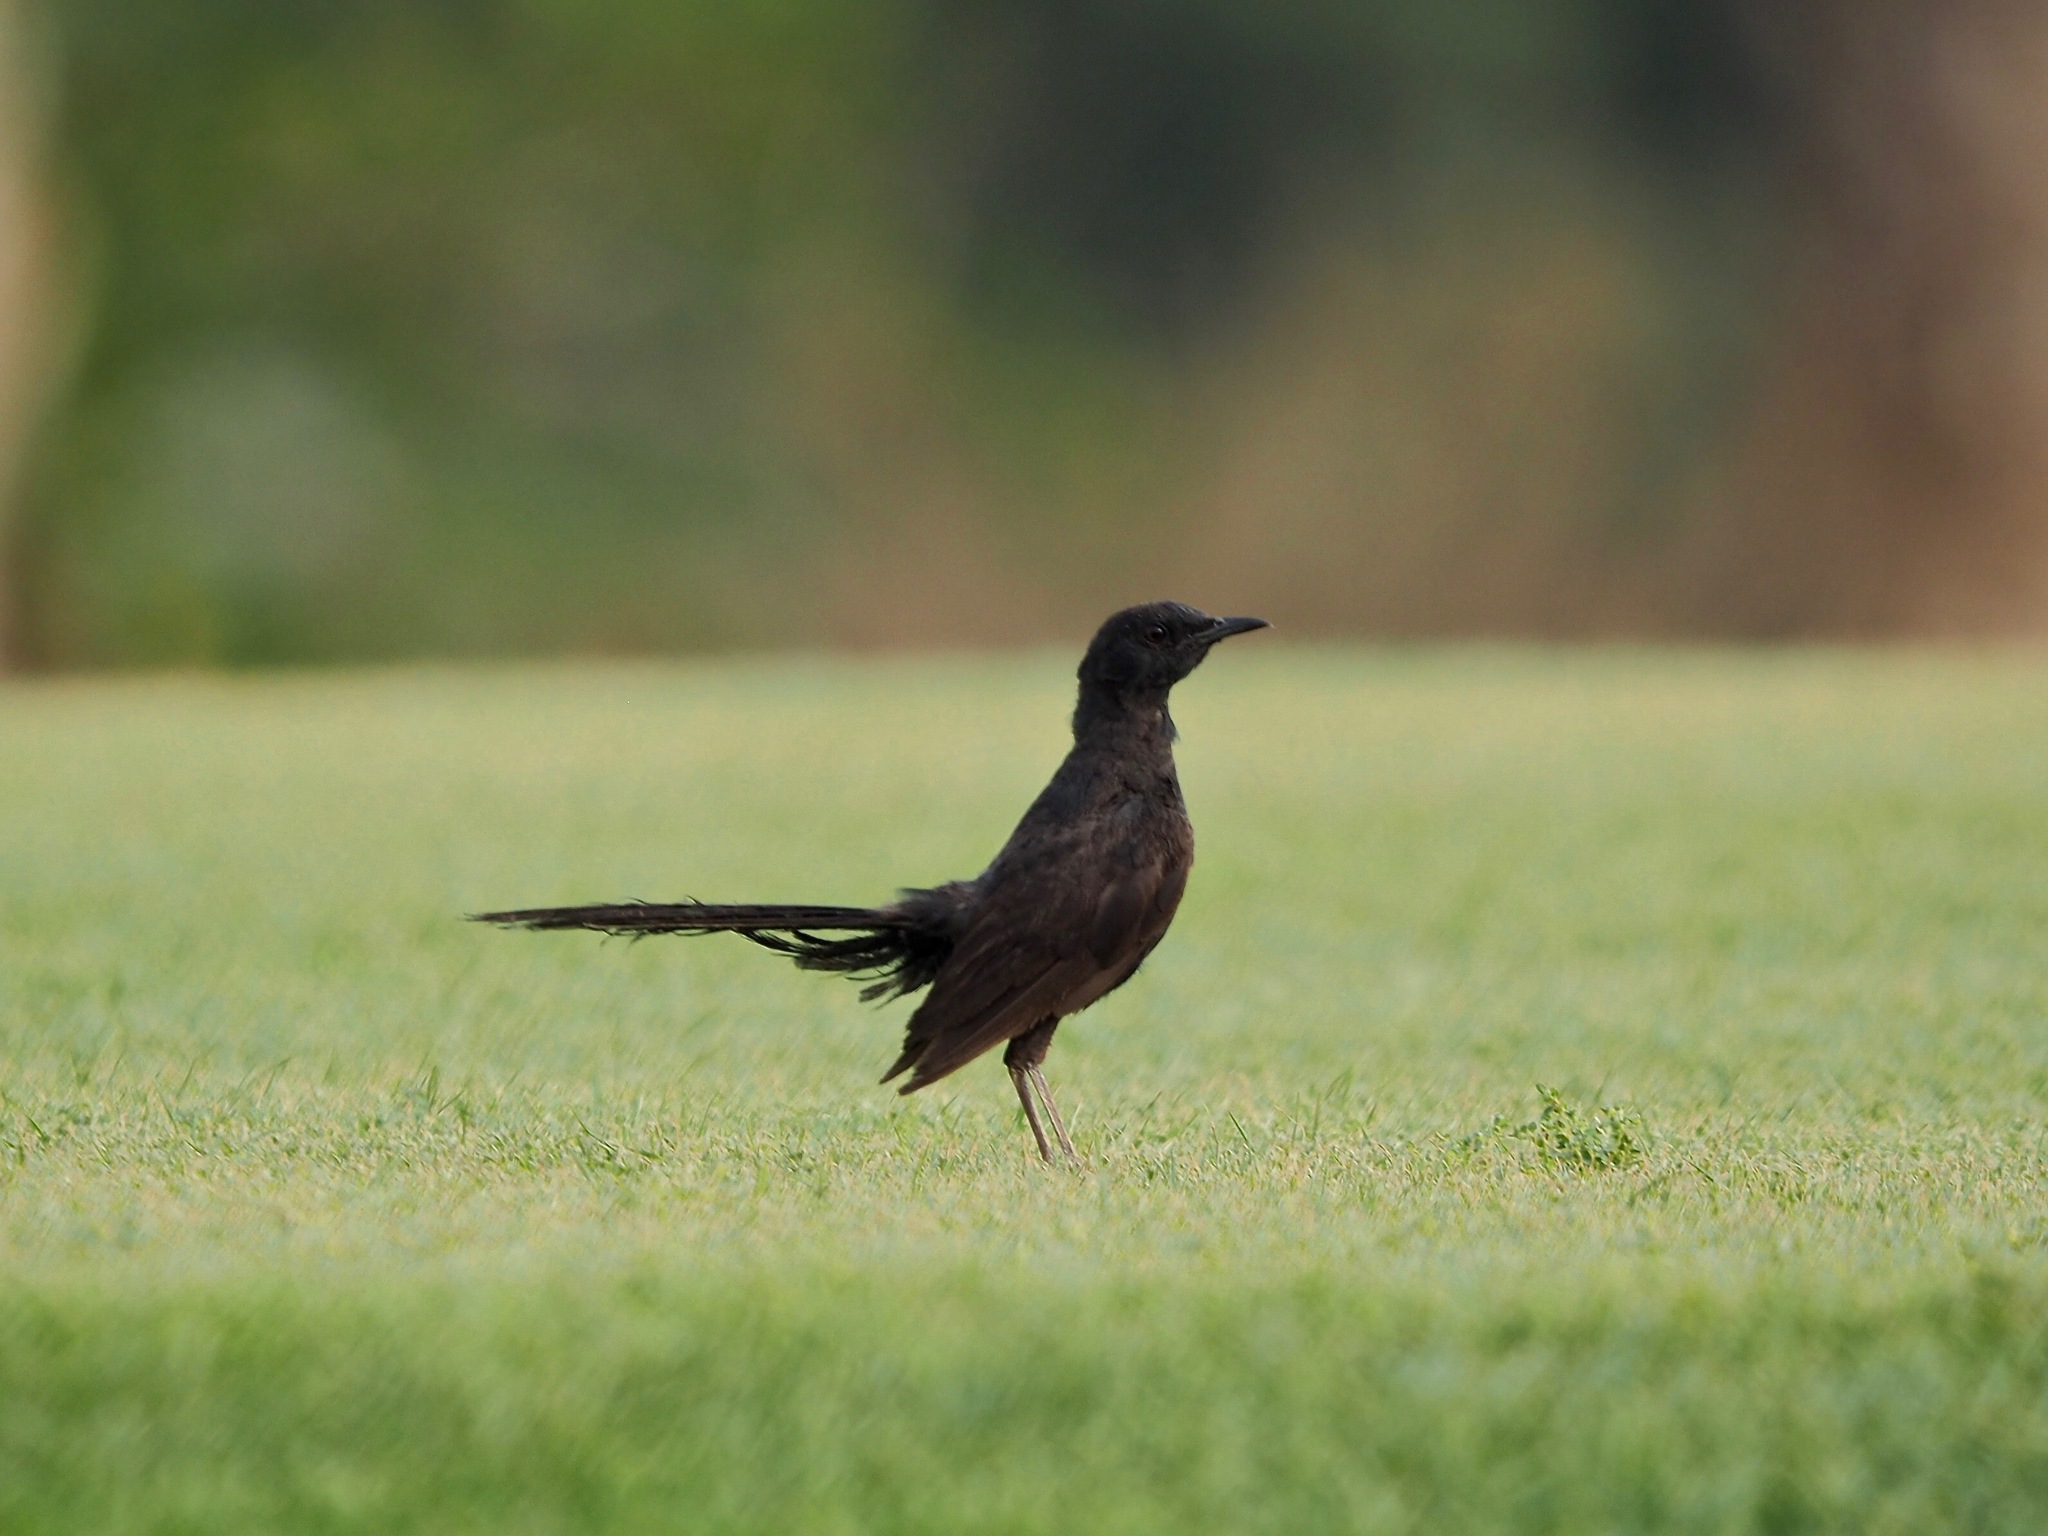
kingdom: Animalia
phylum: Chordata
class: Aves
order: Passeriformes
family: Muscicapidae
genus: Cercotrichas
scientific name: Cercotrichas podobe
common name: Black scrub robin
